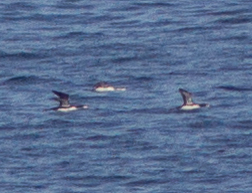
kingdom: Animalia
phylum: Chordata
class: Aves
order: Gaviiformes
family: Gaviidae
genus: Gavia
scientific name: Gavia stellata
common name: Red-throated loon
